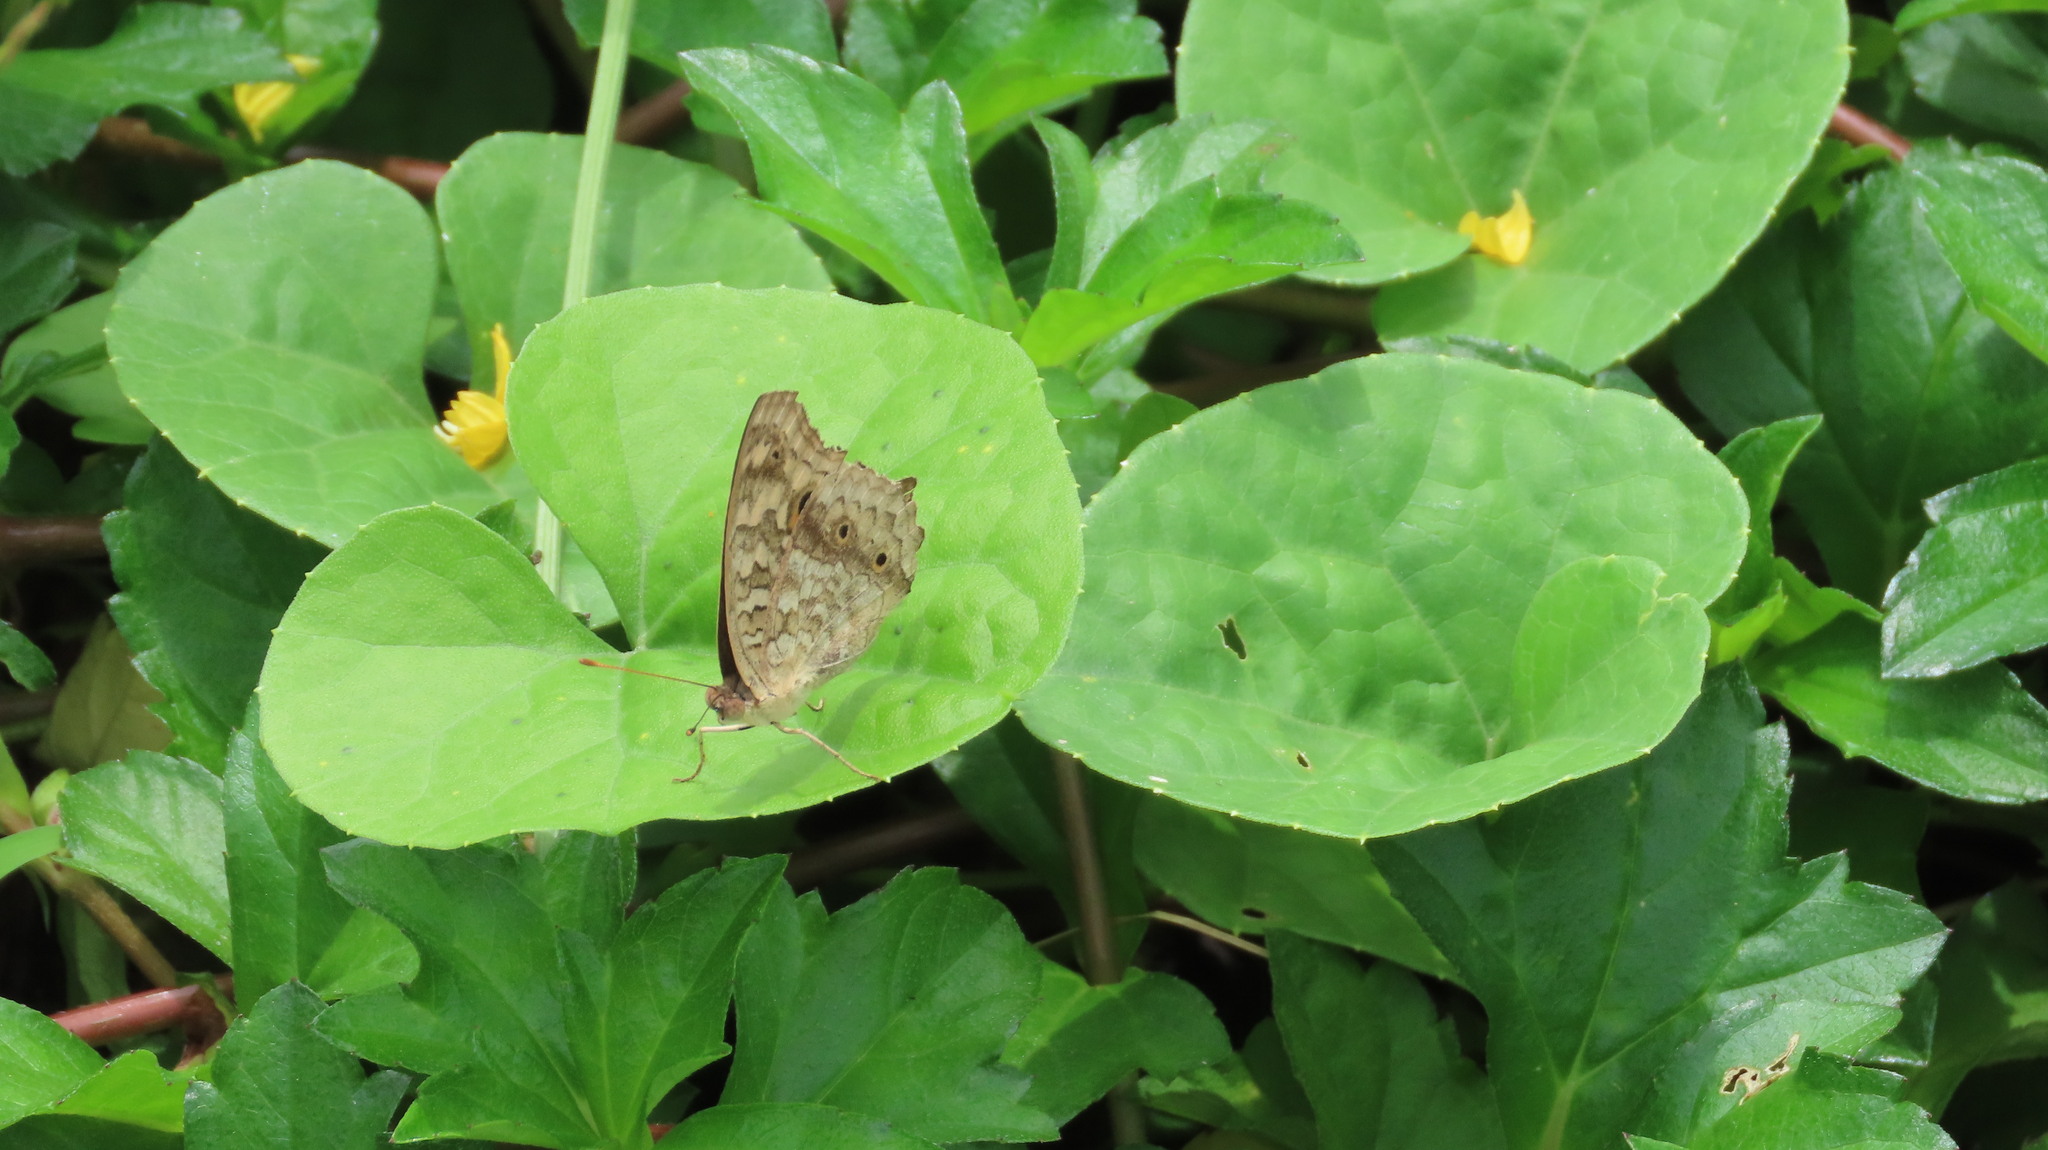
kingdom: Animalia
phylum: Arthropoda
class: Insecta
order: Lepidoptera
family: Nymphalidae
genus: Junonia
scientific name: Junonia lemonias
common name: Lemon pansy
